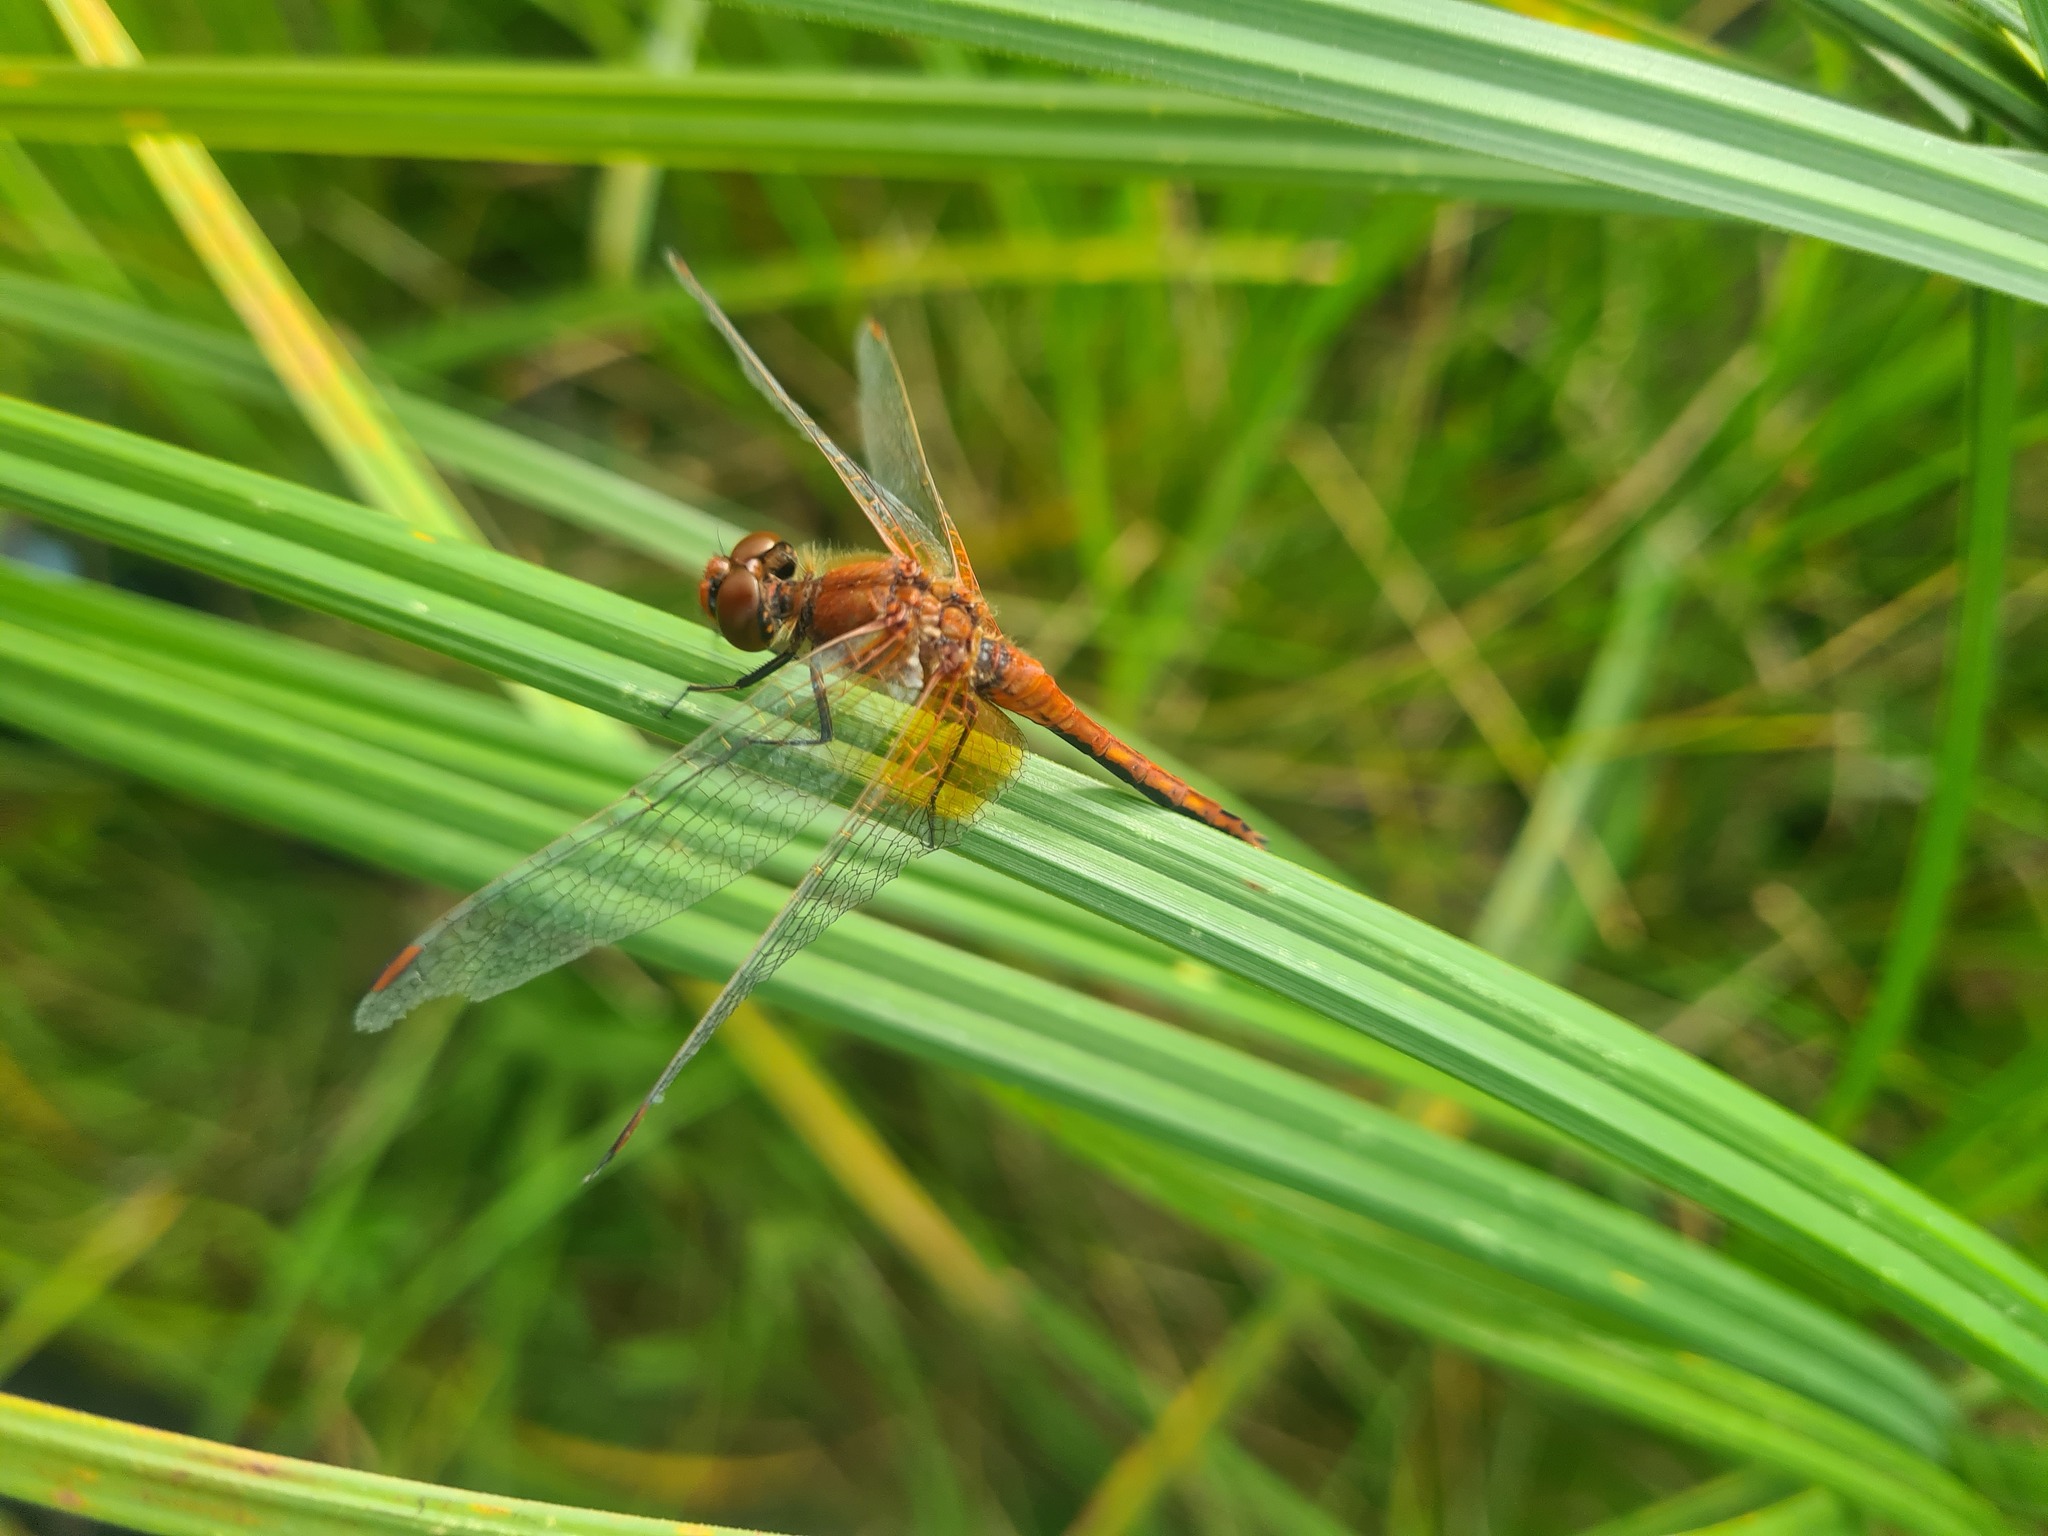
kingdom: Animalia
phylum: Arthropoda
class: Insecta
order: Odonata
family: Libellulidae
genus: Sympetrum
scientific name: Sympetrum flaveolum
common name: Yellow-winged darter
